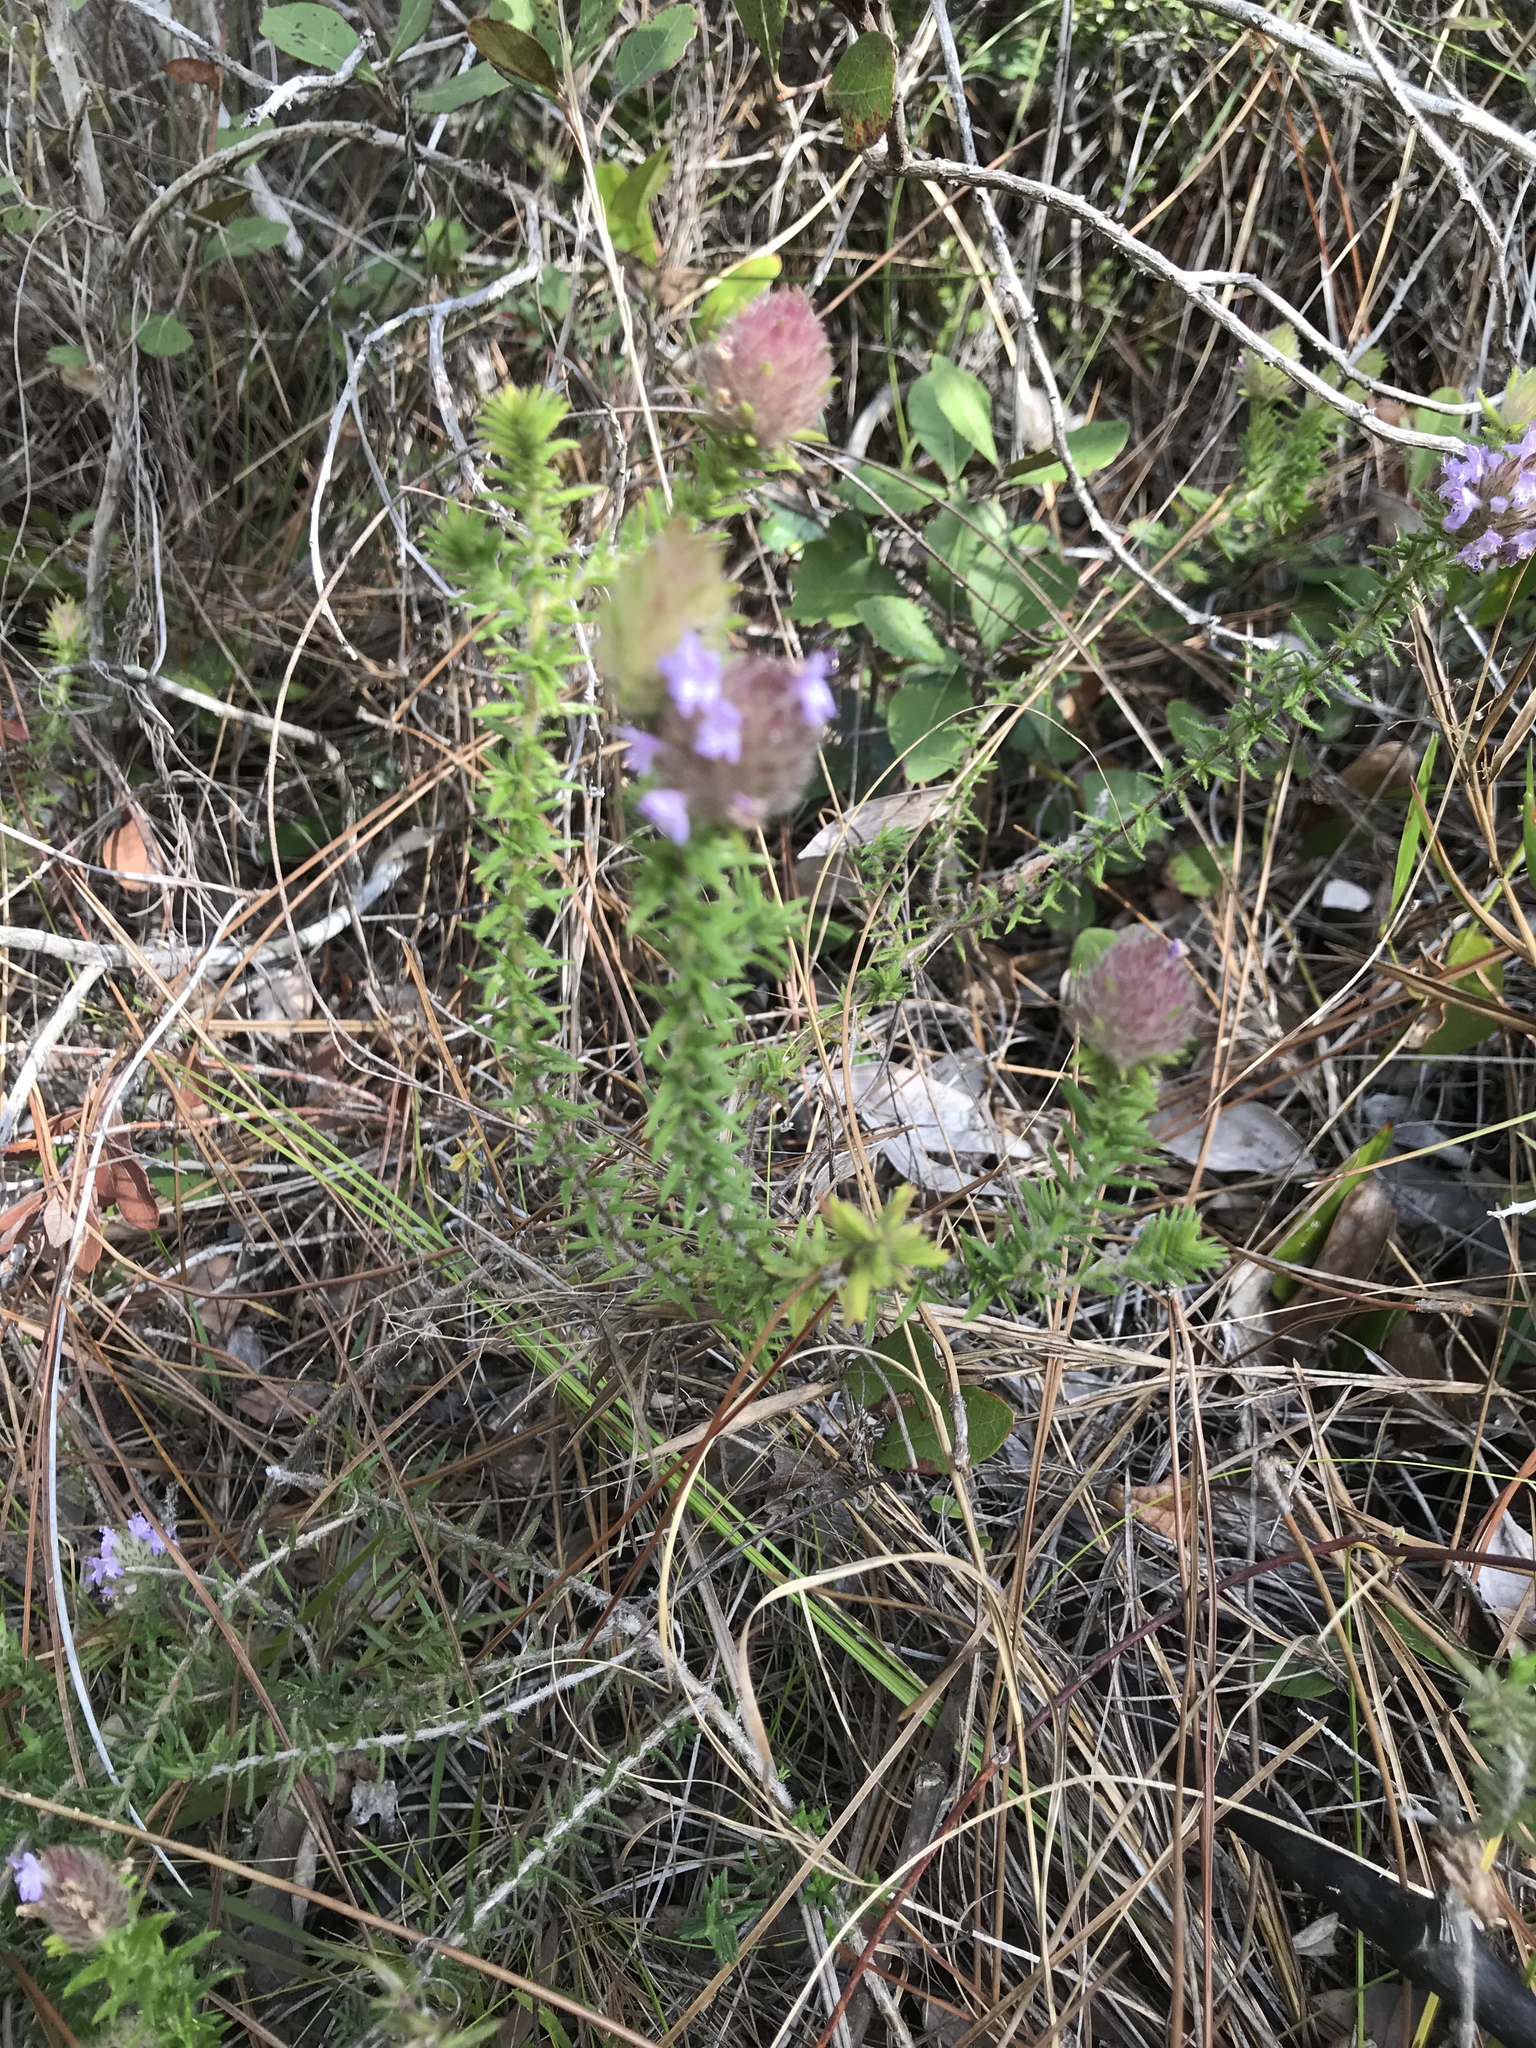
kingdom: Plantae
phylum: Tracheophyta
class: Magnoliopsida
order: Lamiales
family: Lamiaceae
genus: Piloblephis
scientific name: Piloblephis rigida
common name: Wild pennyroyal
